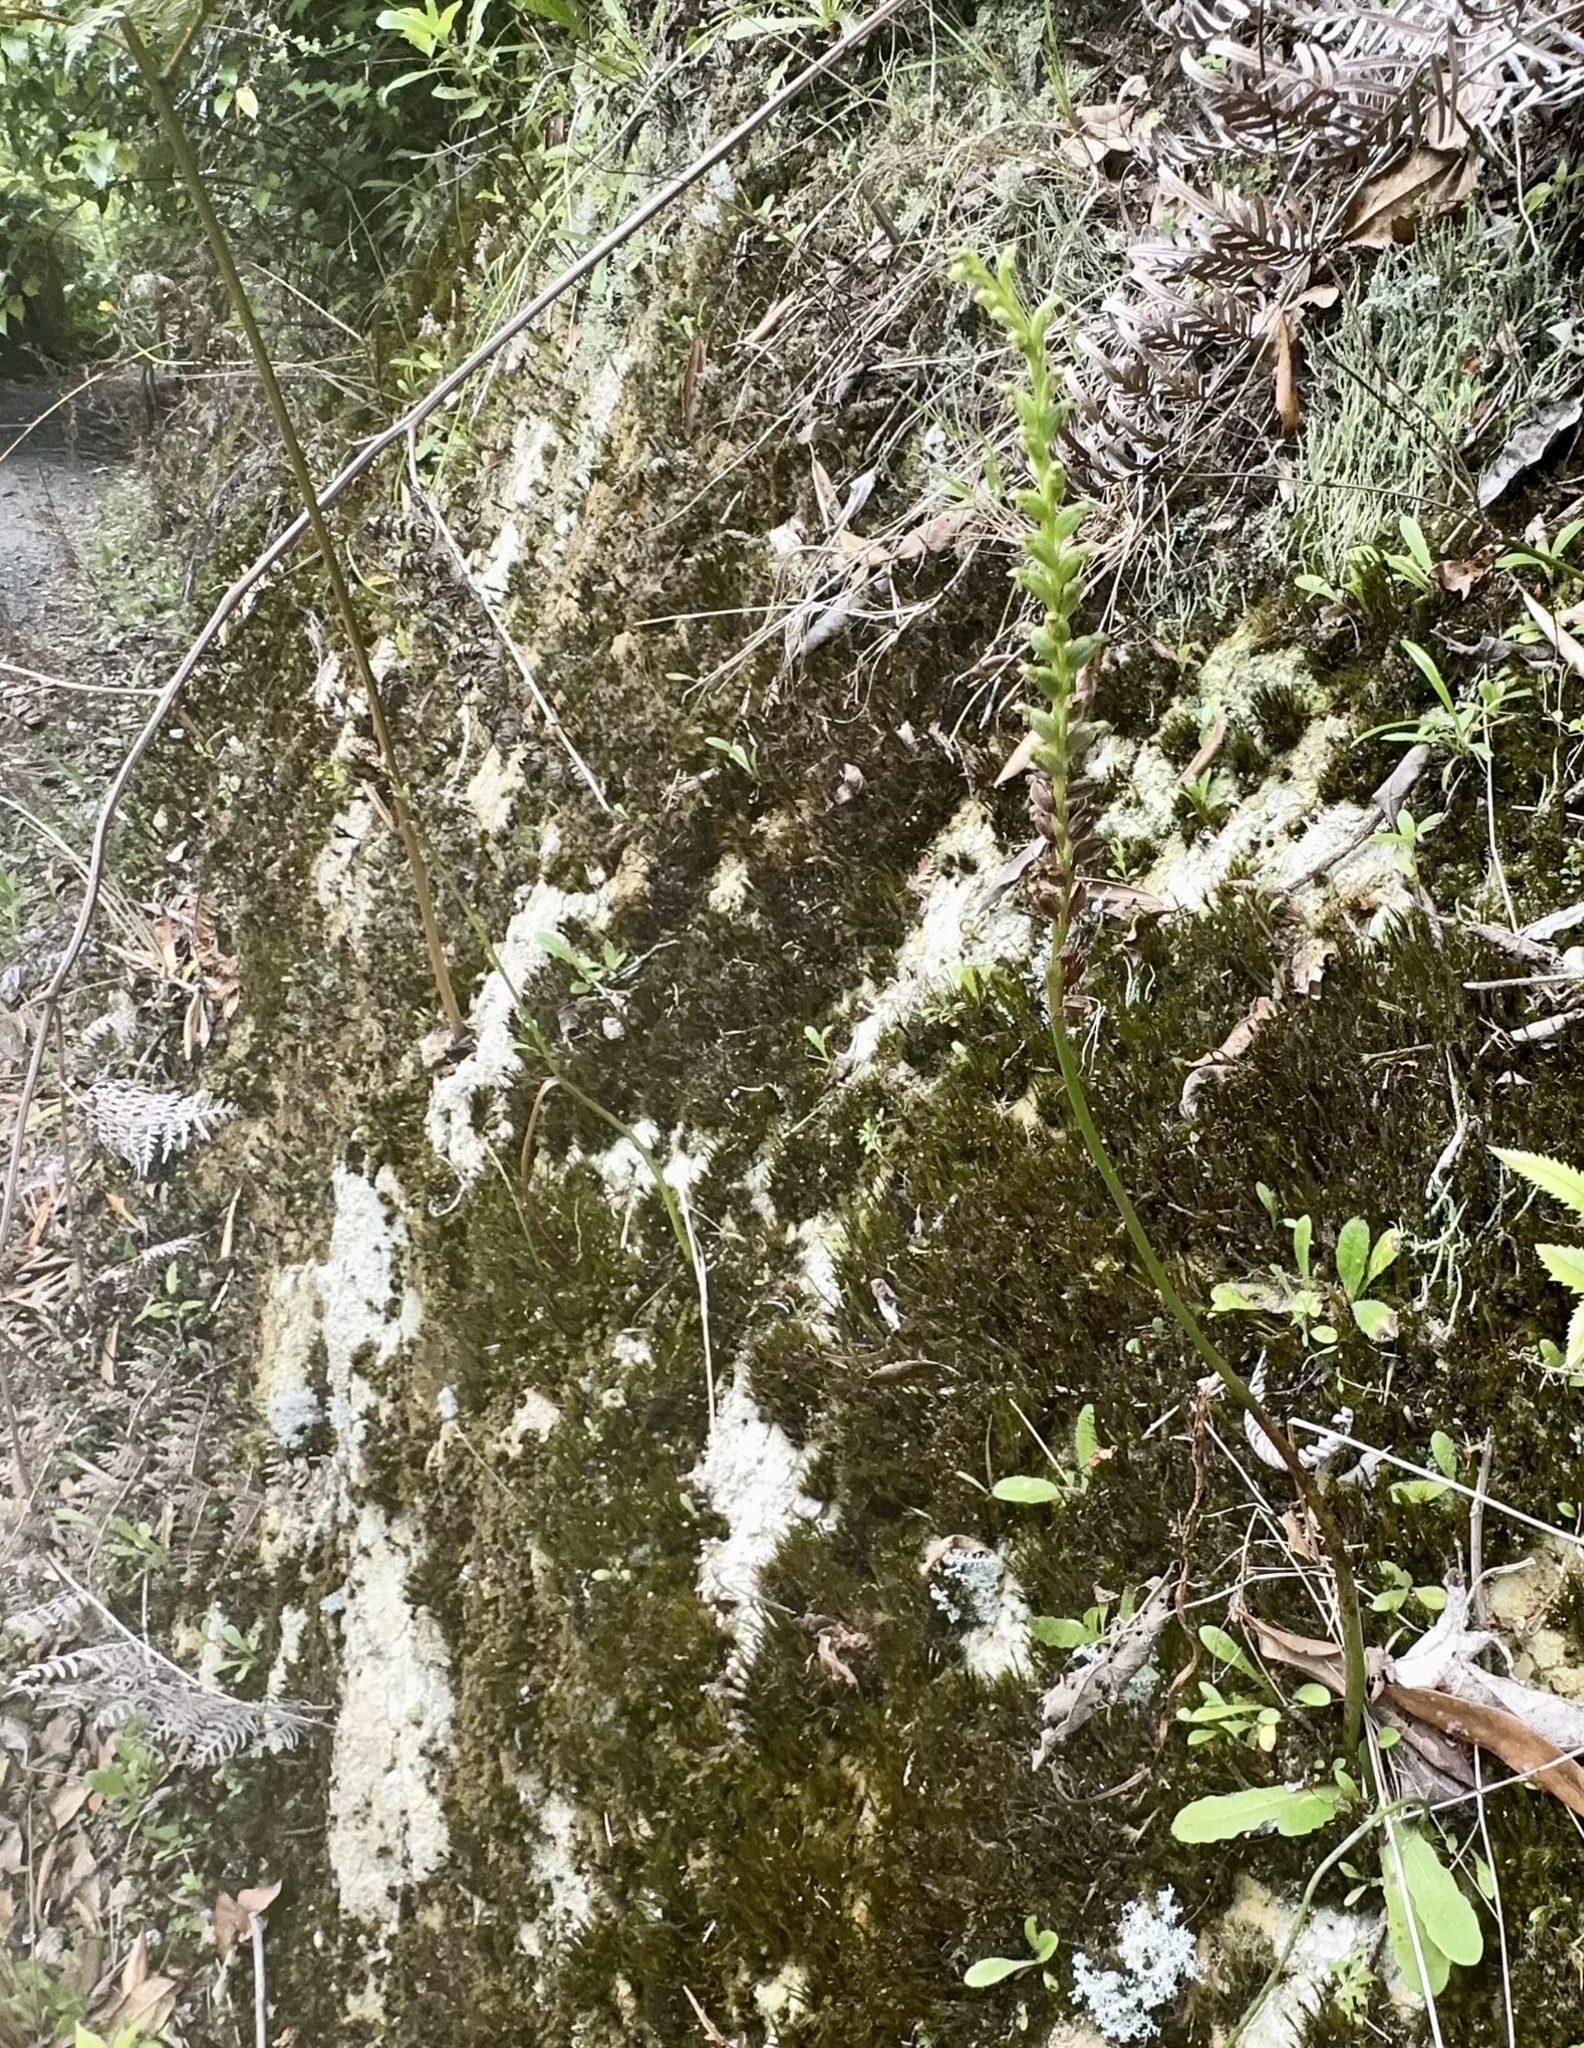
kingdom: Plantae
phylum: Tracheophyta
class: Liliopsida
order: Asparagales
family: Orchidaceae
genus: Microtis
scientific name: Microtis unifolia
